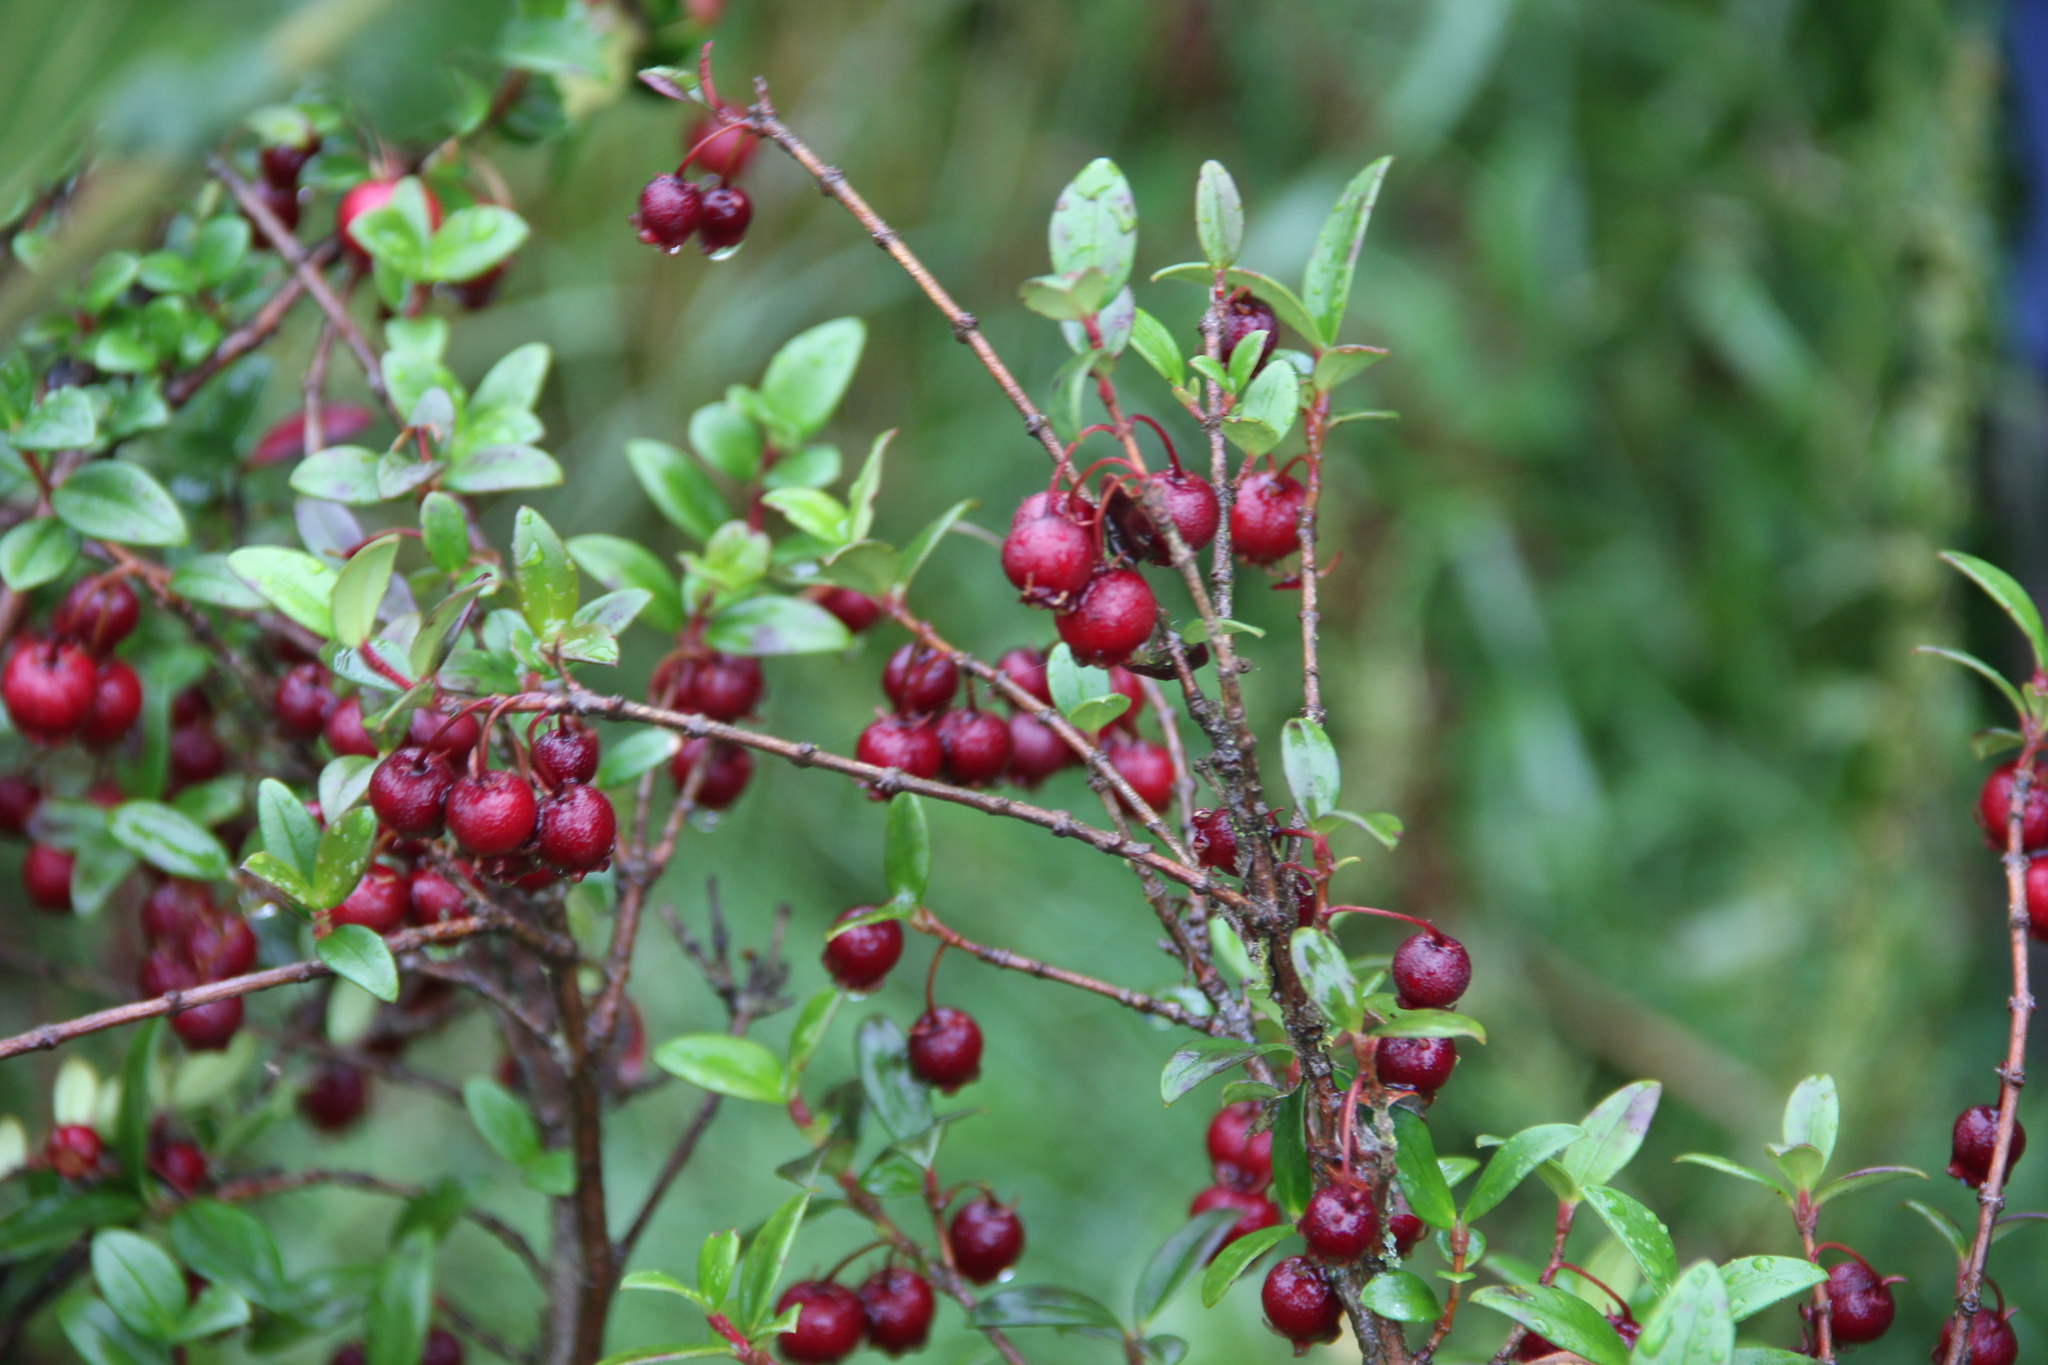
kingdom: Plantae
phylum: Tracheophyta
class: Magnoliopsida
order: Myrtales
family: Myrtaceae
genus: Ugni
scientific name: Ugni molinae
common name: Chilean-guava
